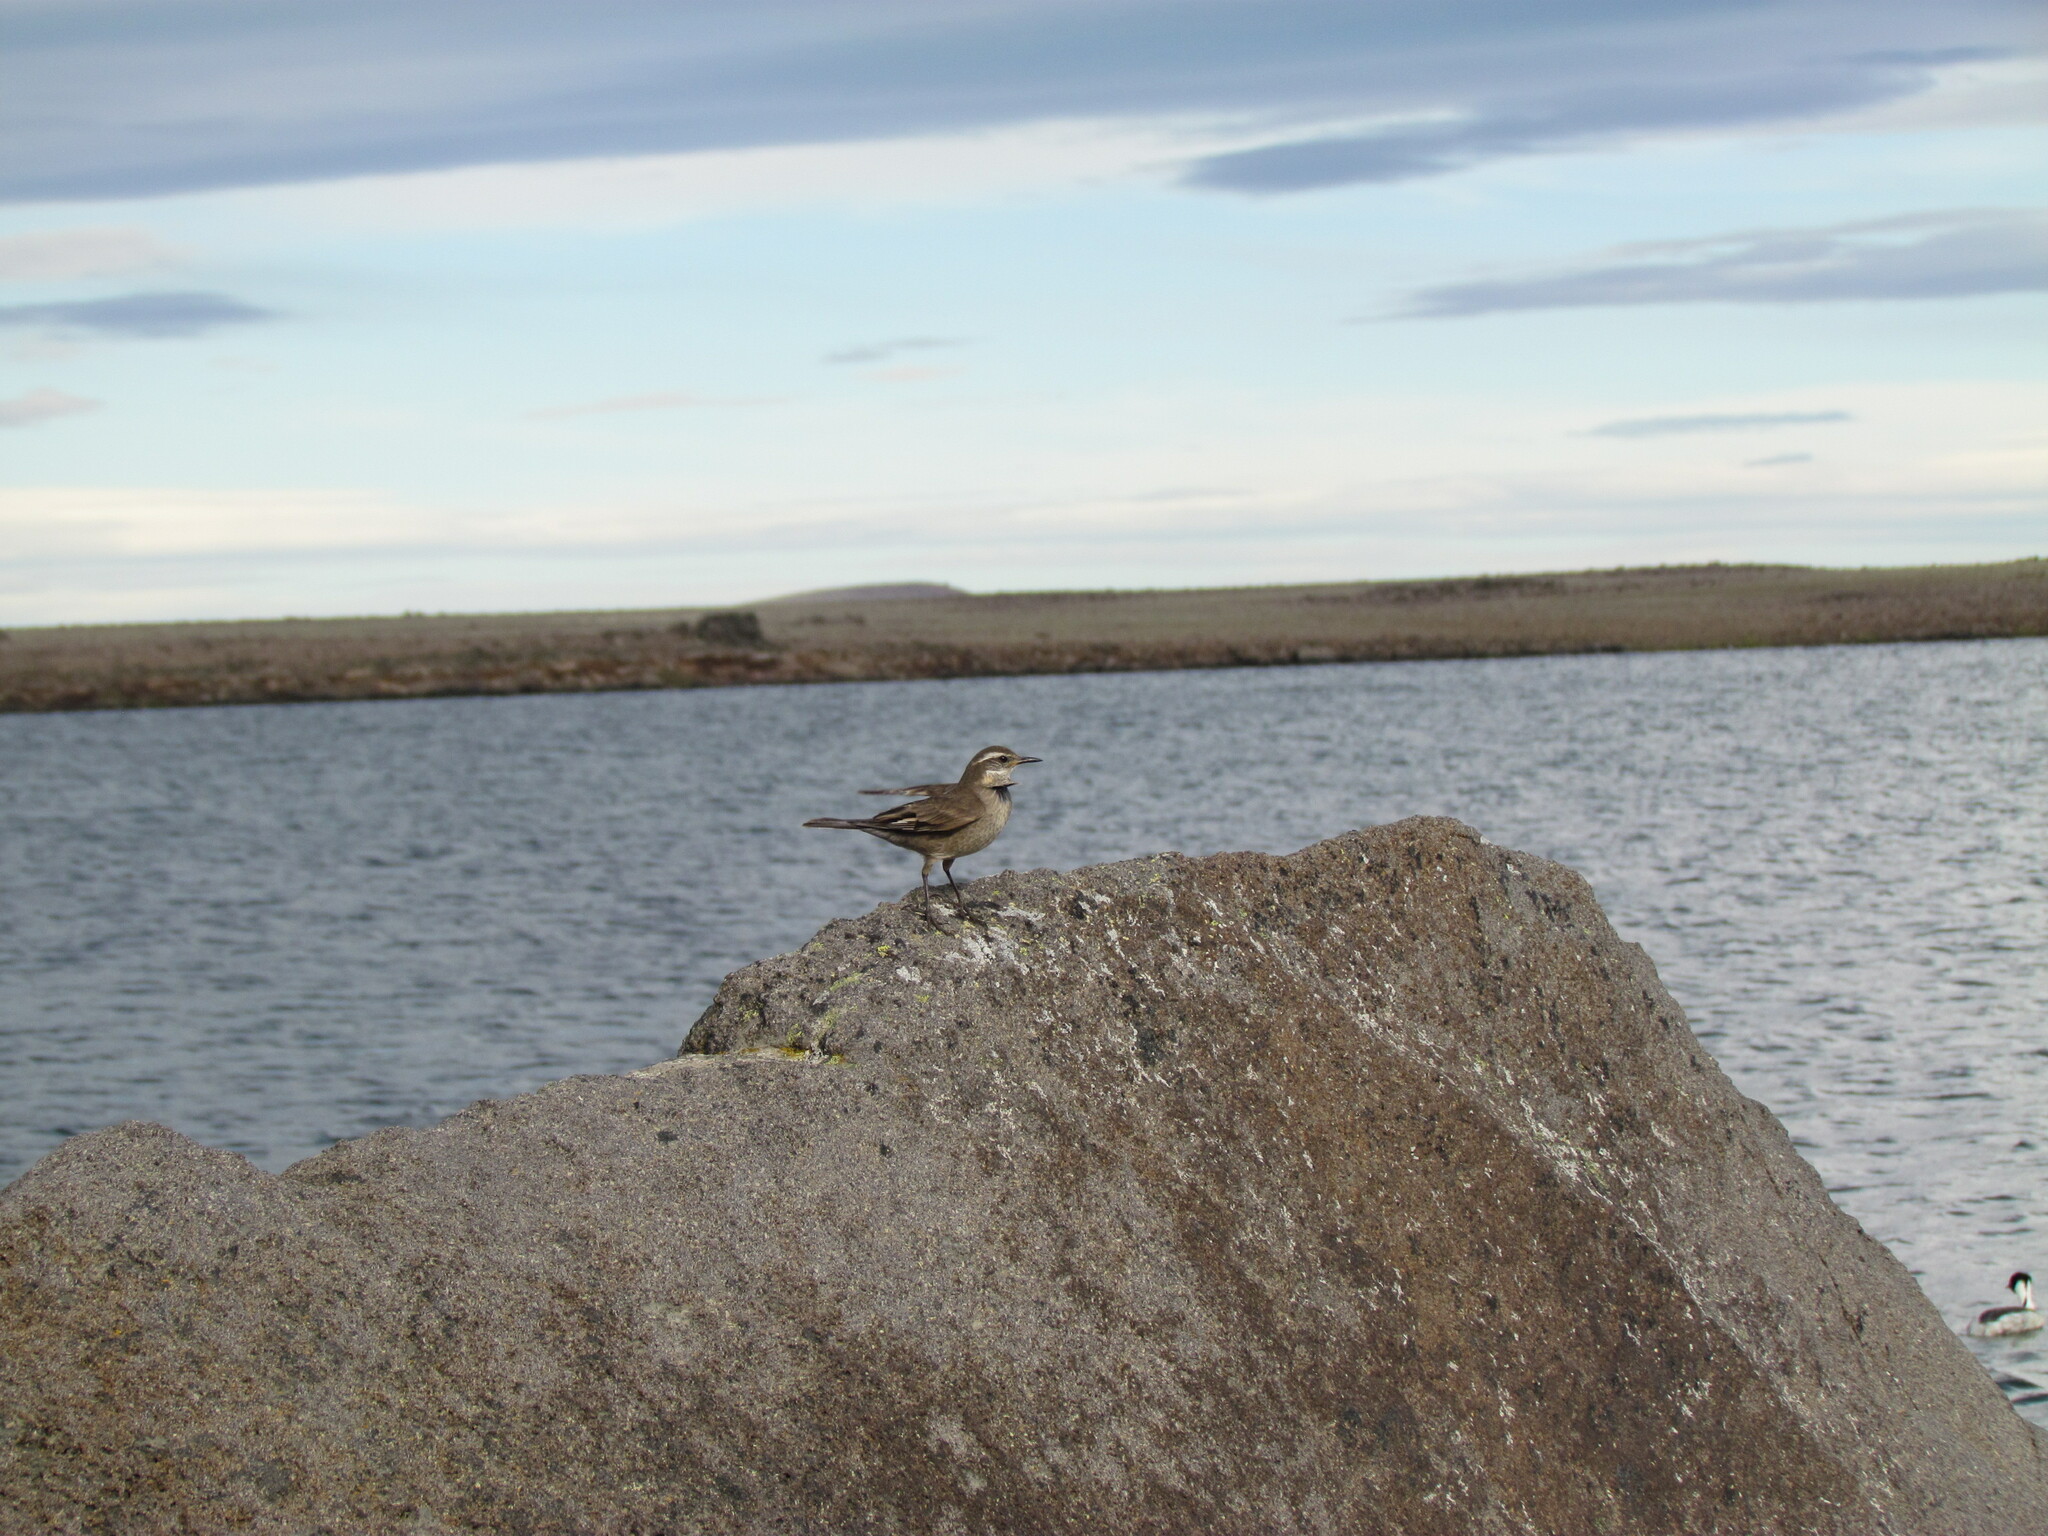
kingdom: Animalia
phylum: Chordata
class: Aves
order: Passeriformes
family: Furnariidae
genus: Cinclodes
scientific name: Cinclodes fuscus
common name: Buff-winged cinclodes
